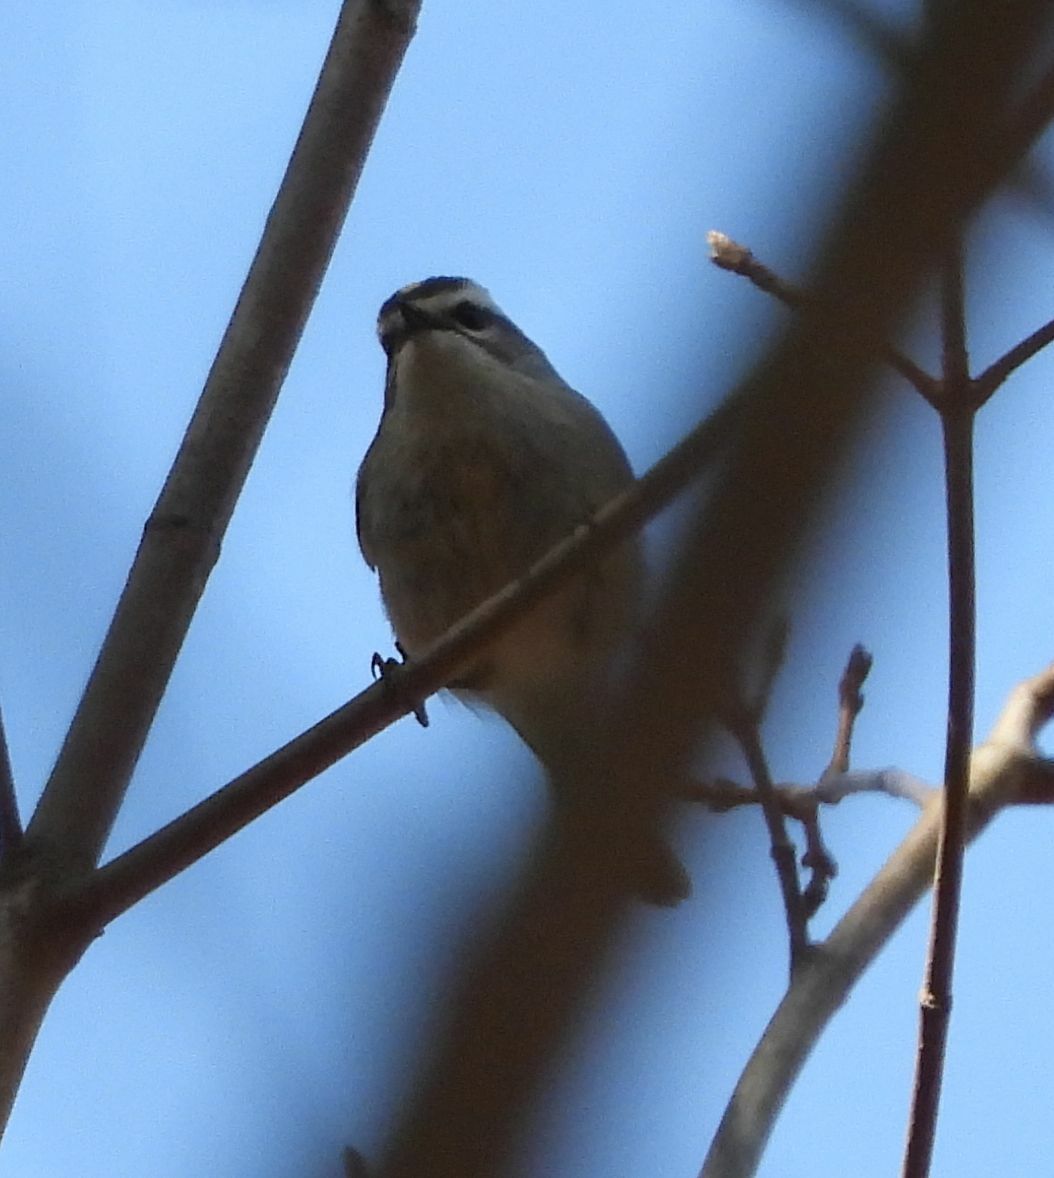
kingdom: Animalia
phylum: Chordata
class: Aves
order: Passeriformes
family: Regulidae
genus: Regulus
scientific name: Regulus satrapa
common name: Golden-crowned kinglet
